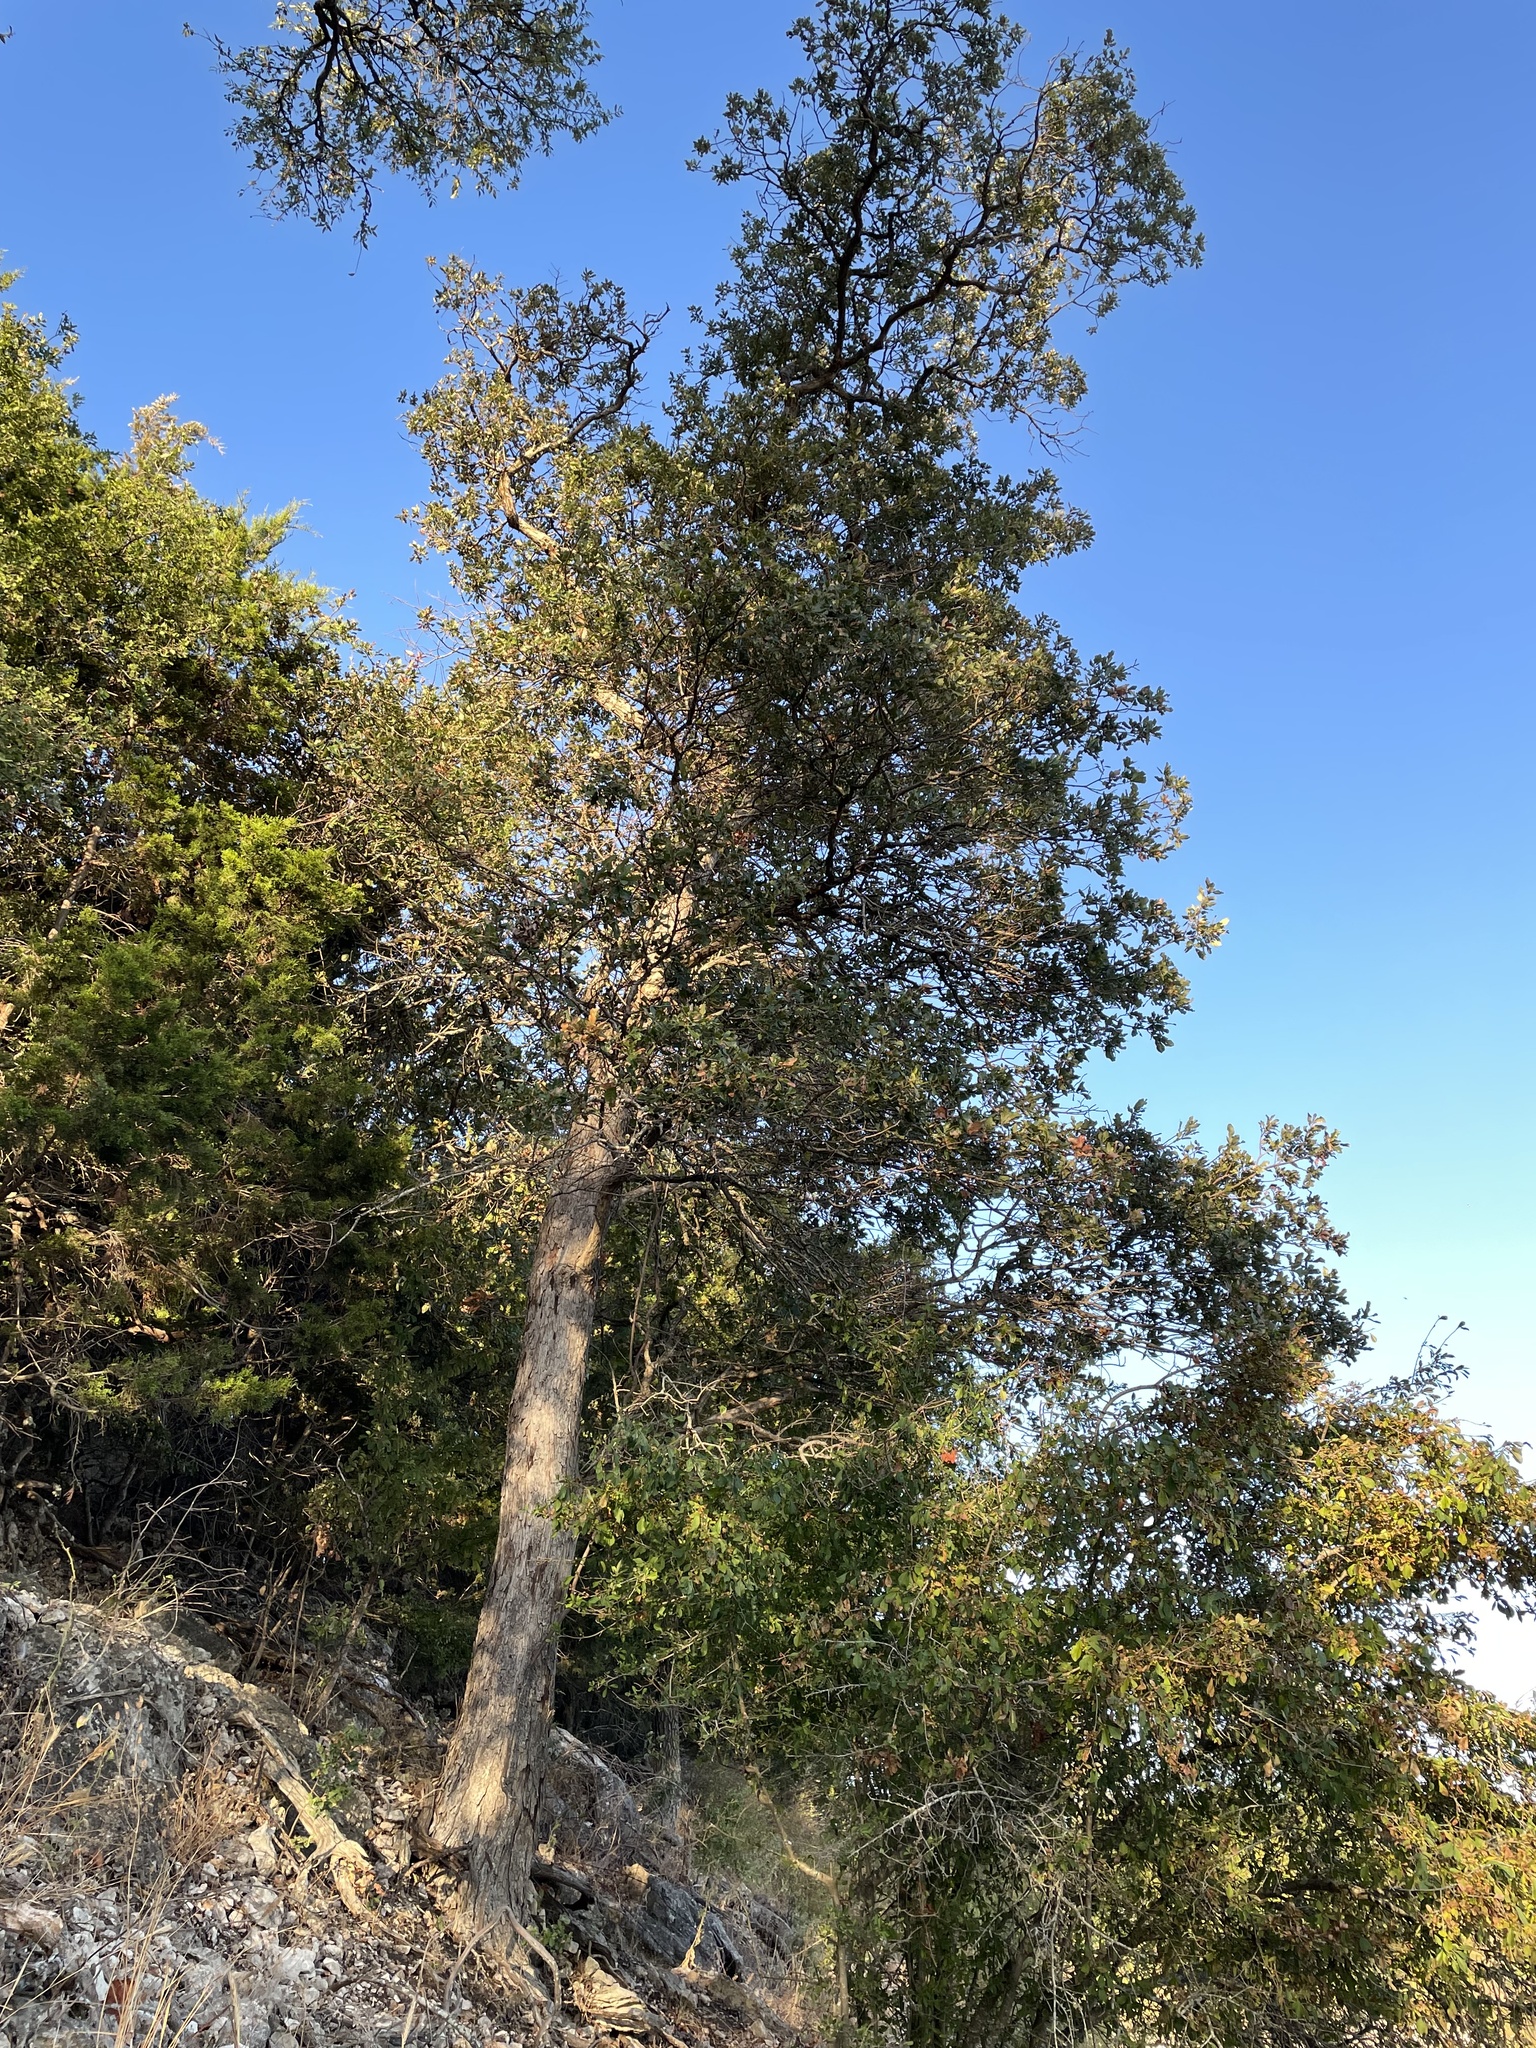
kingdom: Plantae
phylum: Tracheophyta
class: Magnoliopsida
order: Fagales
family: Fagaceae
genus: Quercus
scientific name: Quercus sinuata
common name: Durand oak
